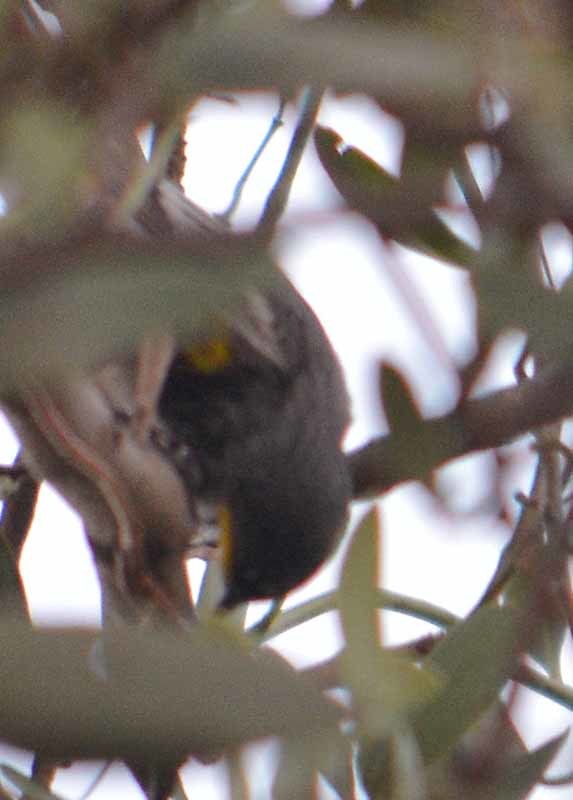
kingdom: Animalia
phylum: Chordata
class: Aves
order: Passeriformes
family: Parulidae
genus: Setophaga
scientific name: Setophaga auduboni
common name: Audubon's warbler
